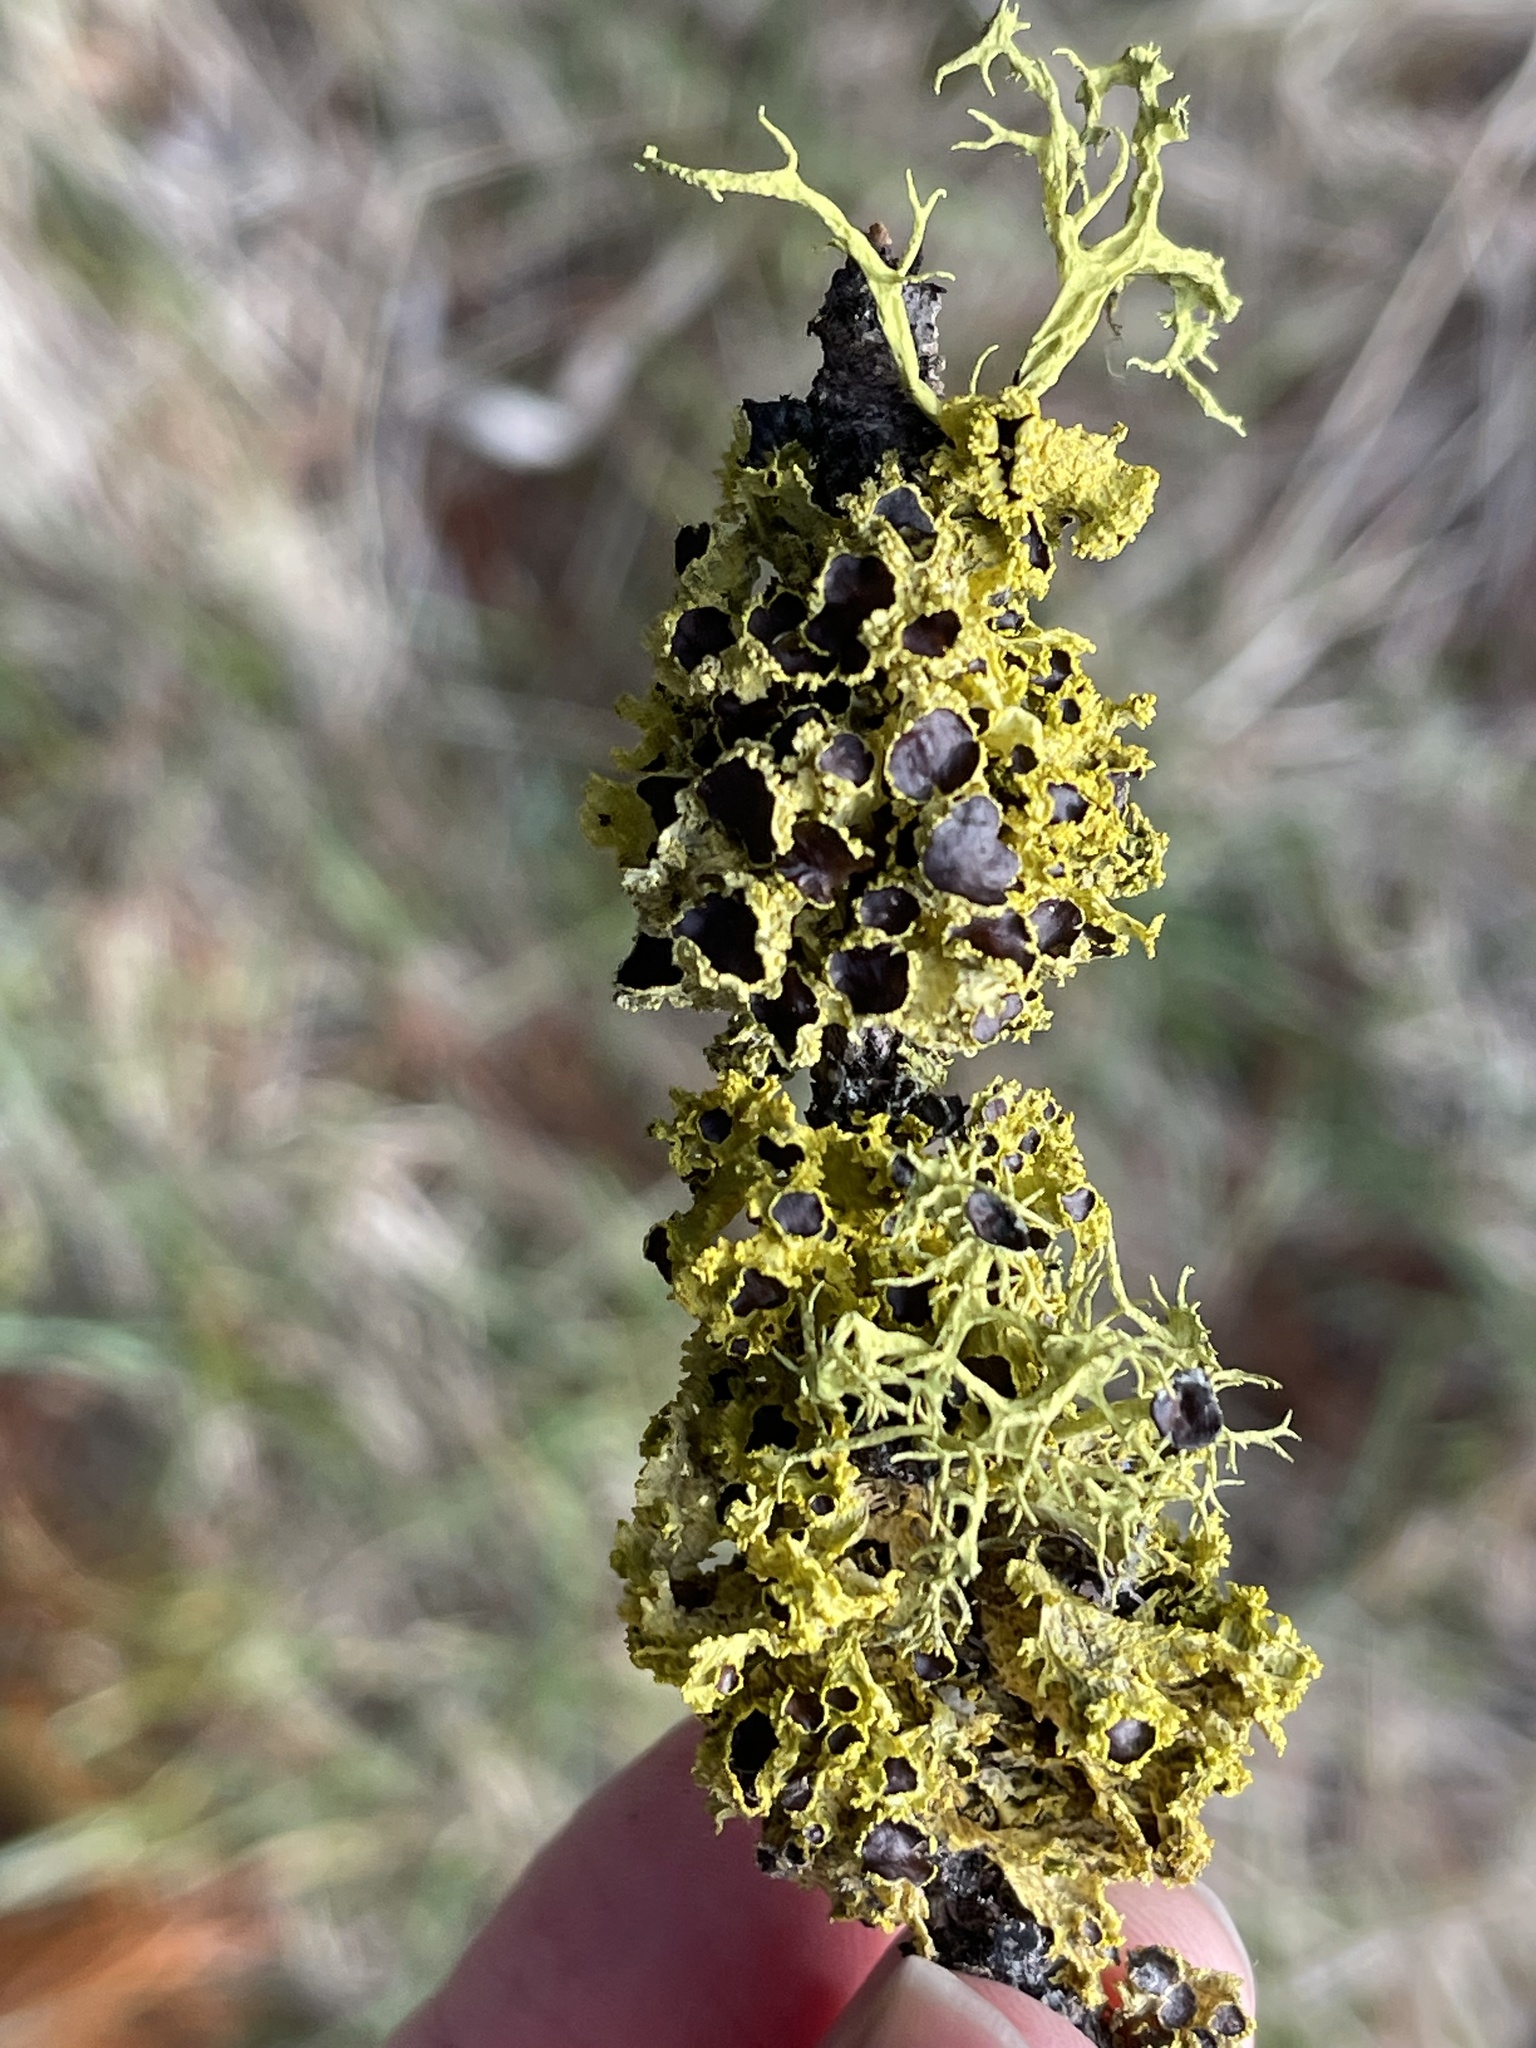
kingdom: Fungi
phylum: Ascomycota
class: Lecanoromycetes
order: Lecanorales
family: Parmeliaceae
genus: Vulpicida
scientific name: Vulpicida canadensis
